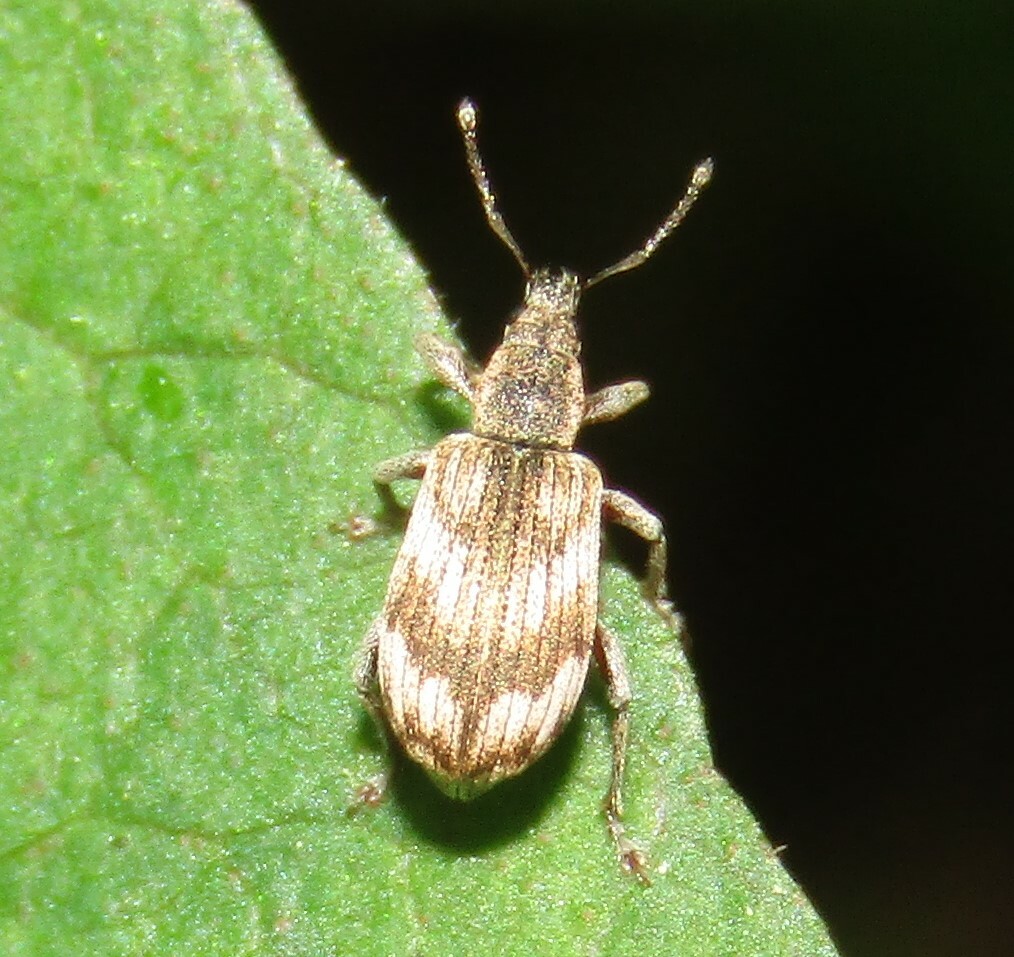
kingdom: Animalia
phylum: Arthropoda
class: Insecta
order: Coleoptera
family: Curculionidae
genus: Polydrusus
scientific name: Polydrusus tereticollis
